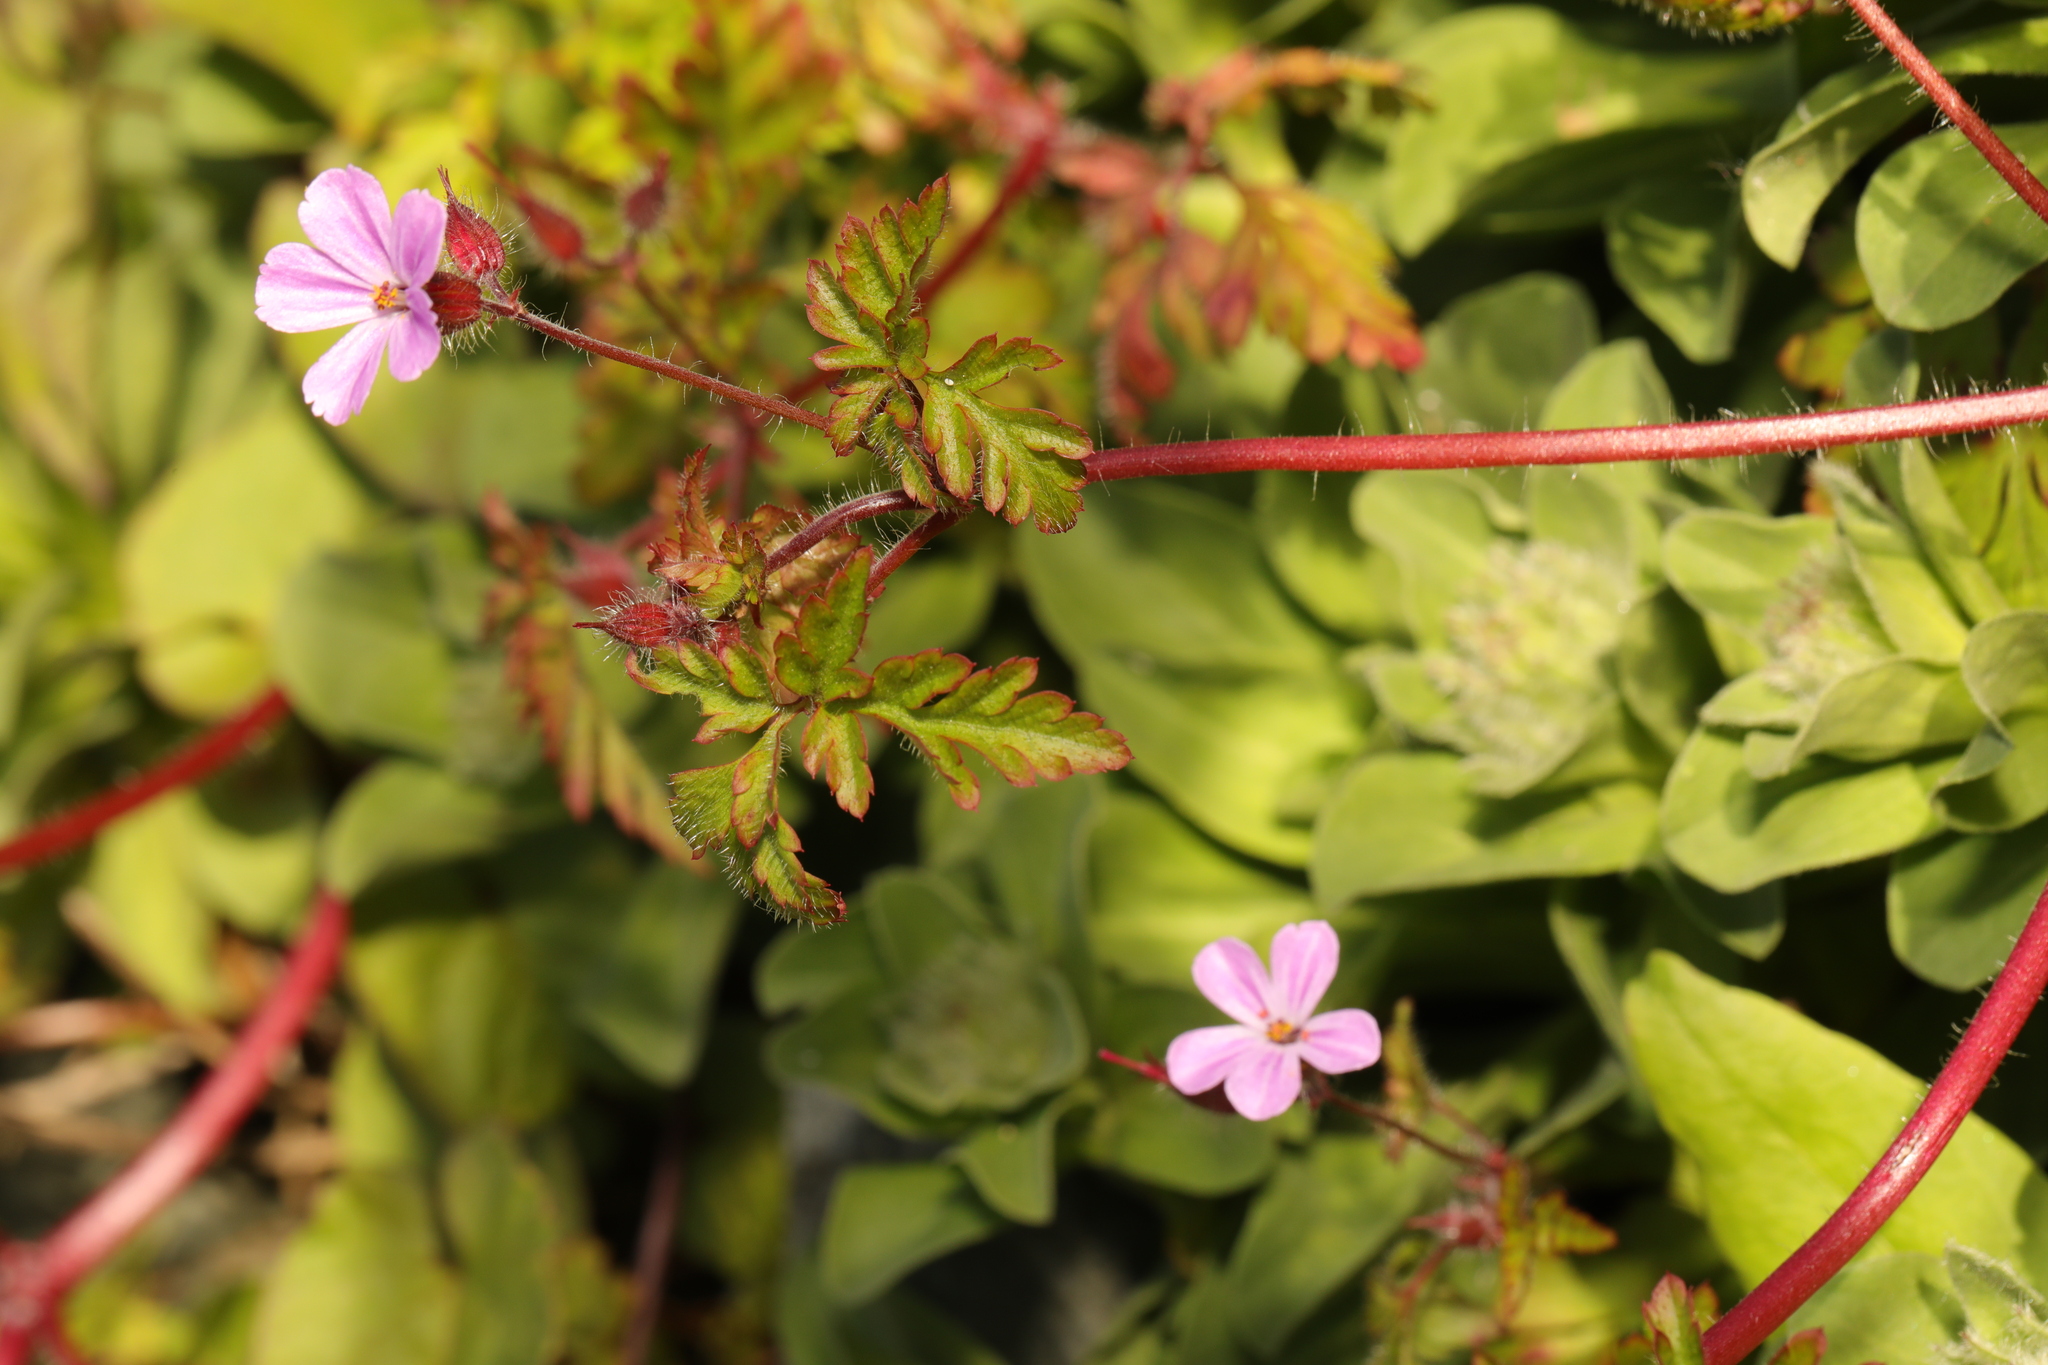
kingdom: Plantae
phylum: Tracheophyta
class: Magnoliopsida
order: Geraniales
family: Geraniaceae
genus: Geranium
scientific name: Geranium robertianum
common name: Herb-robert
